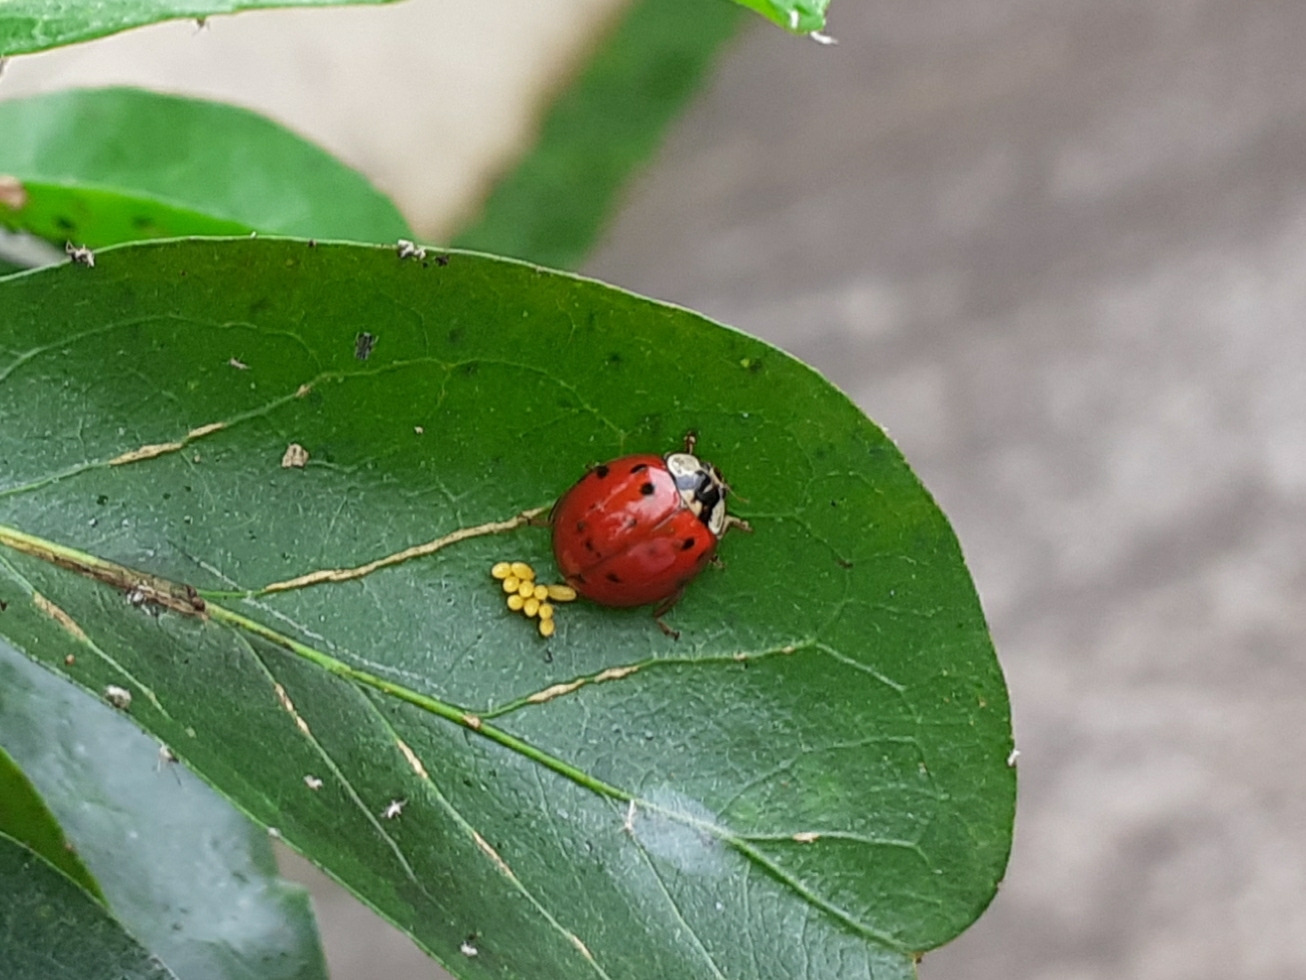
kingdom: Animalia
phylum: Arthropoda
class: Insecta
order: Coleoptera
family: Coccinellidae
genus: Harmonia
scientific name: Harmonia axyridis
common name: Harlequin ladybird
